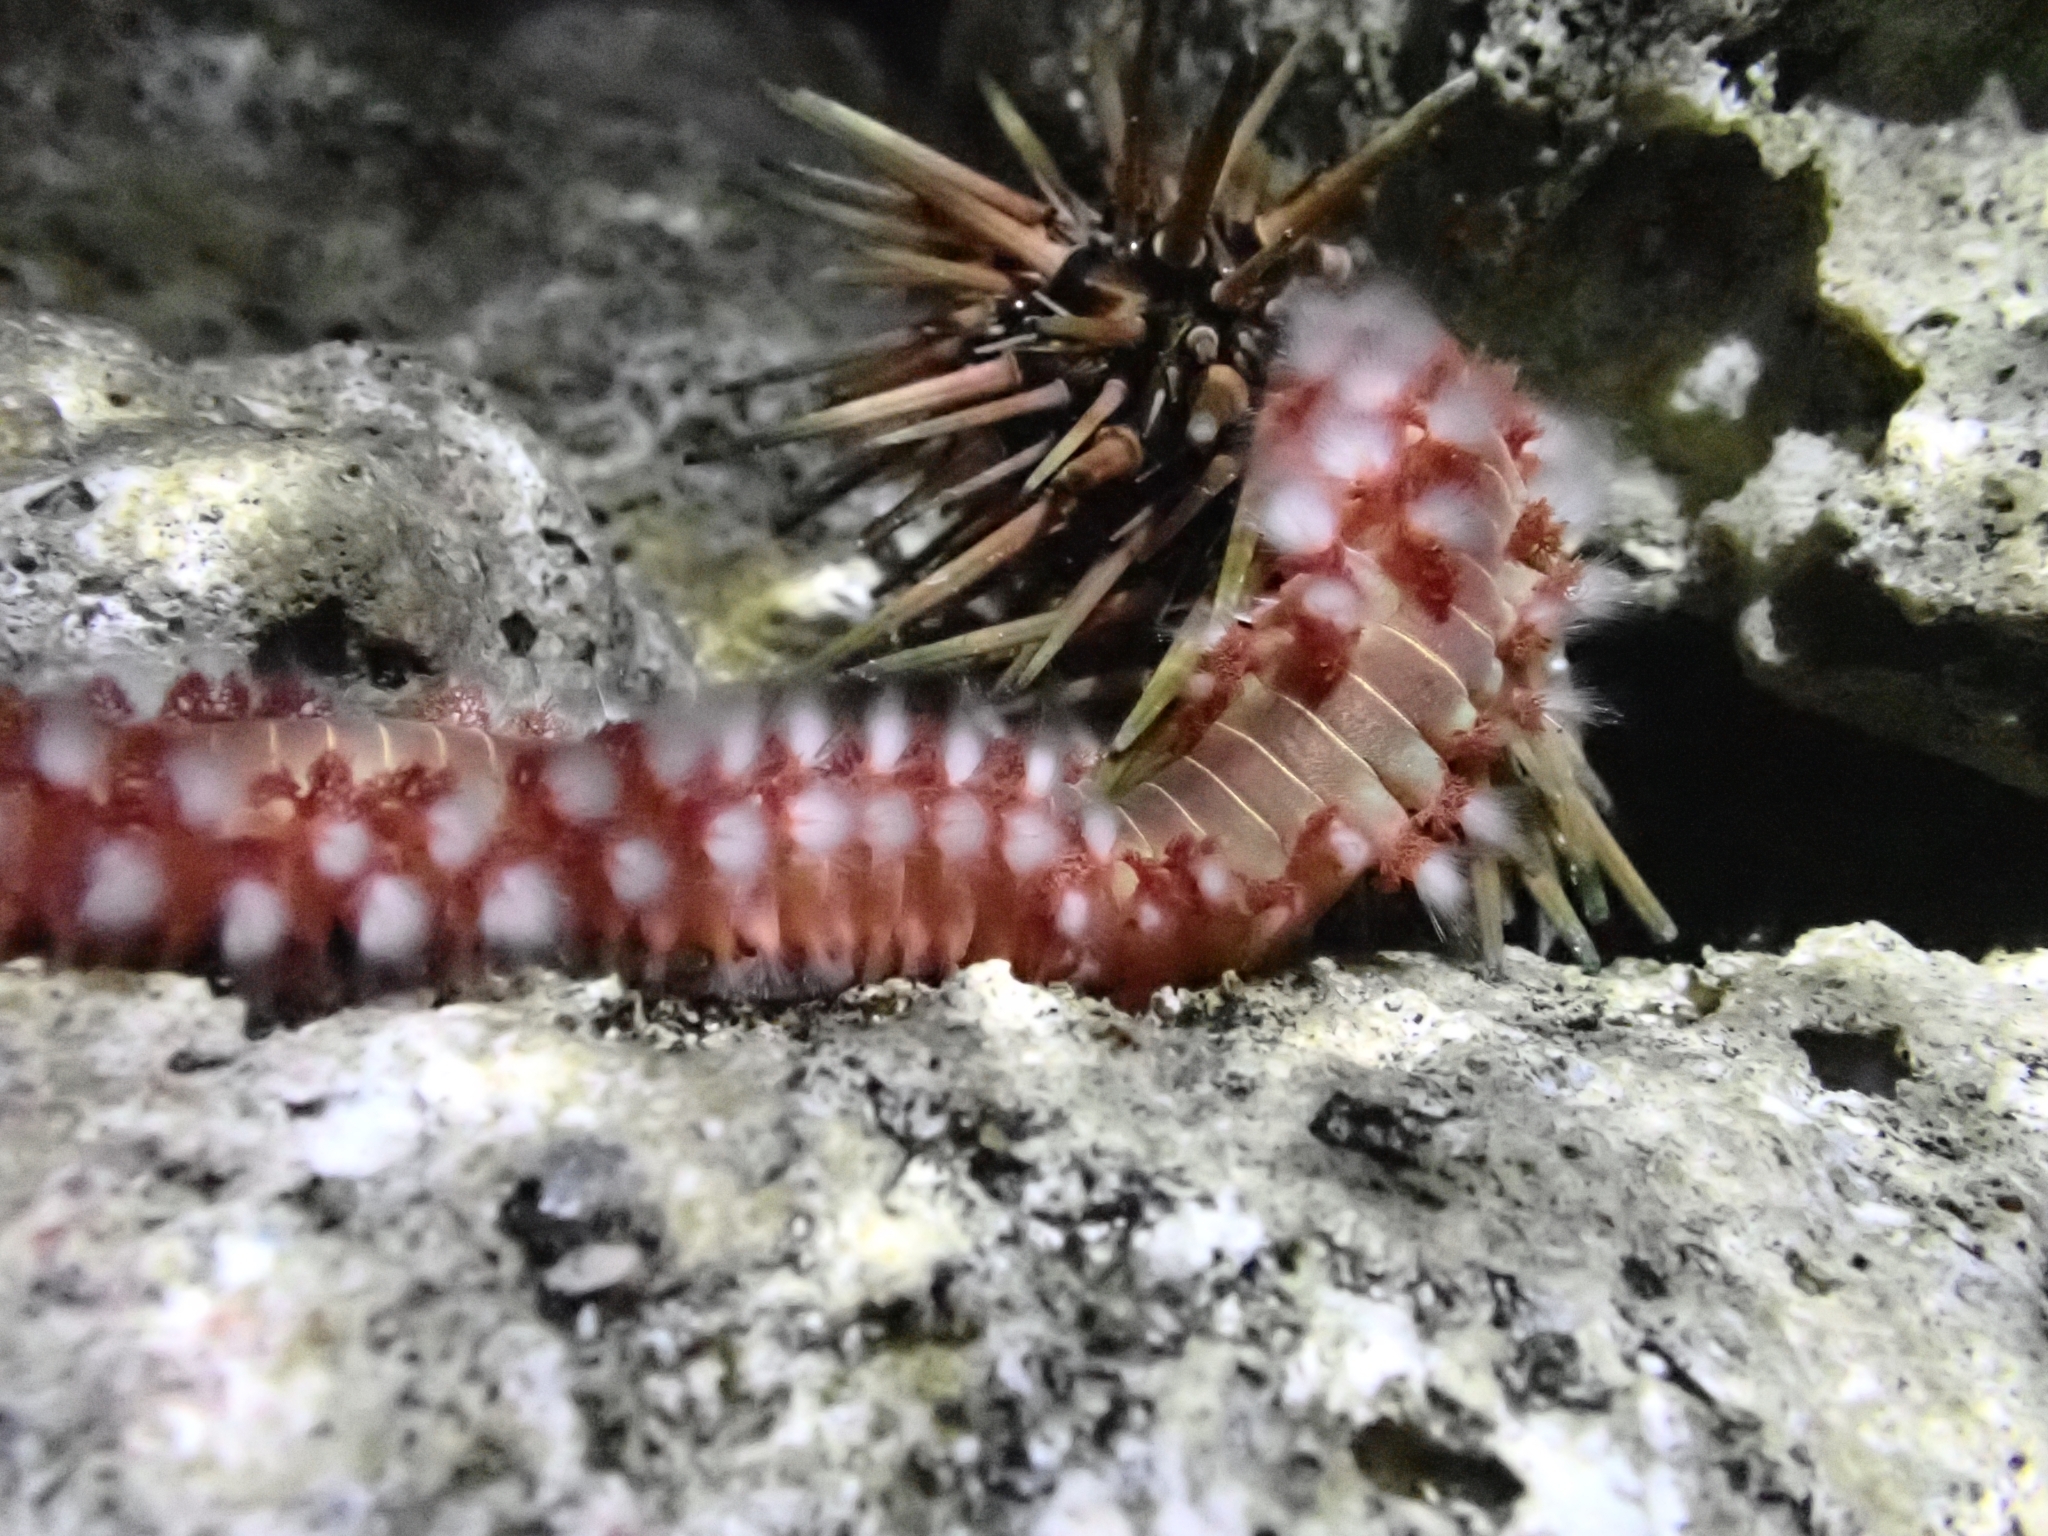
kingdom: Animalia
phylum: Annelida
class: Polychaeta
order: Amphinomida
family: Amphinomidae
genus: Hermodice
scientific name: Hermodice carunculata
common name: Bearded fireworm
